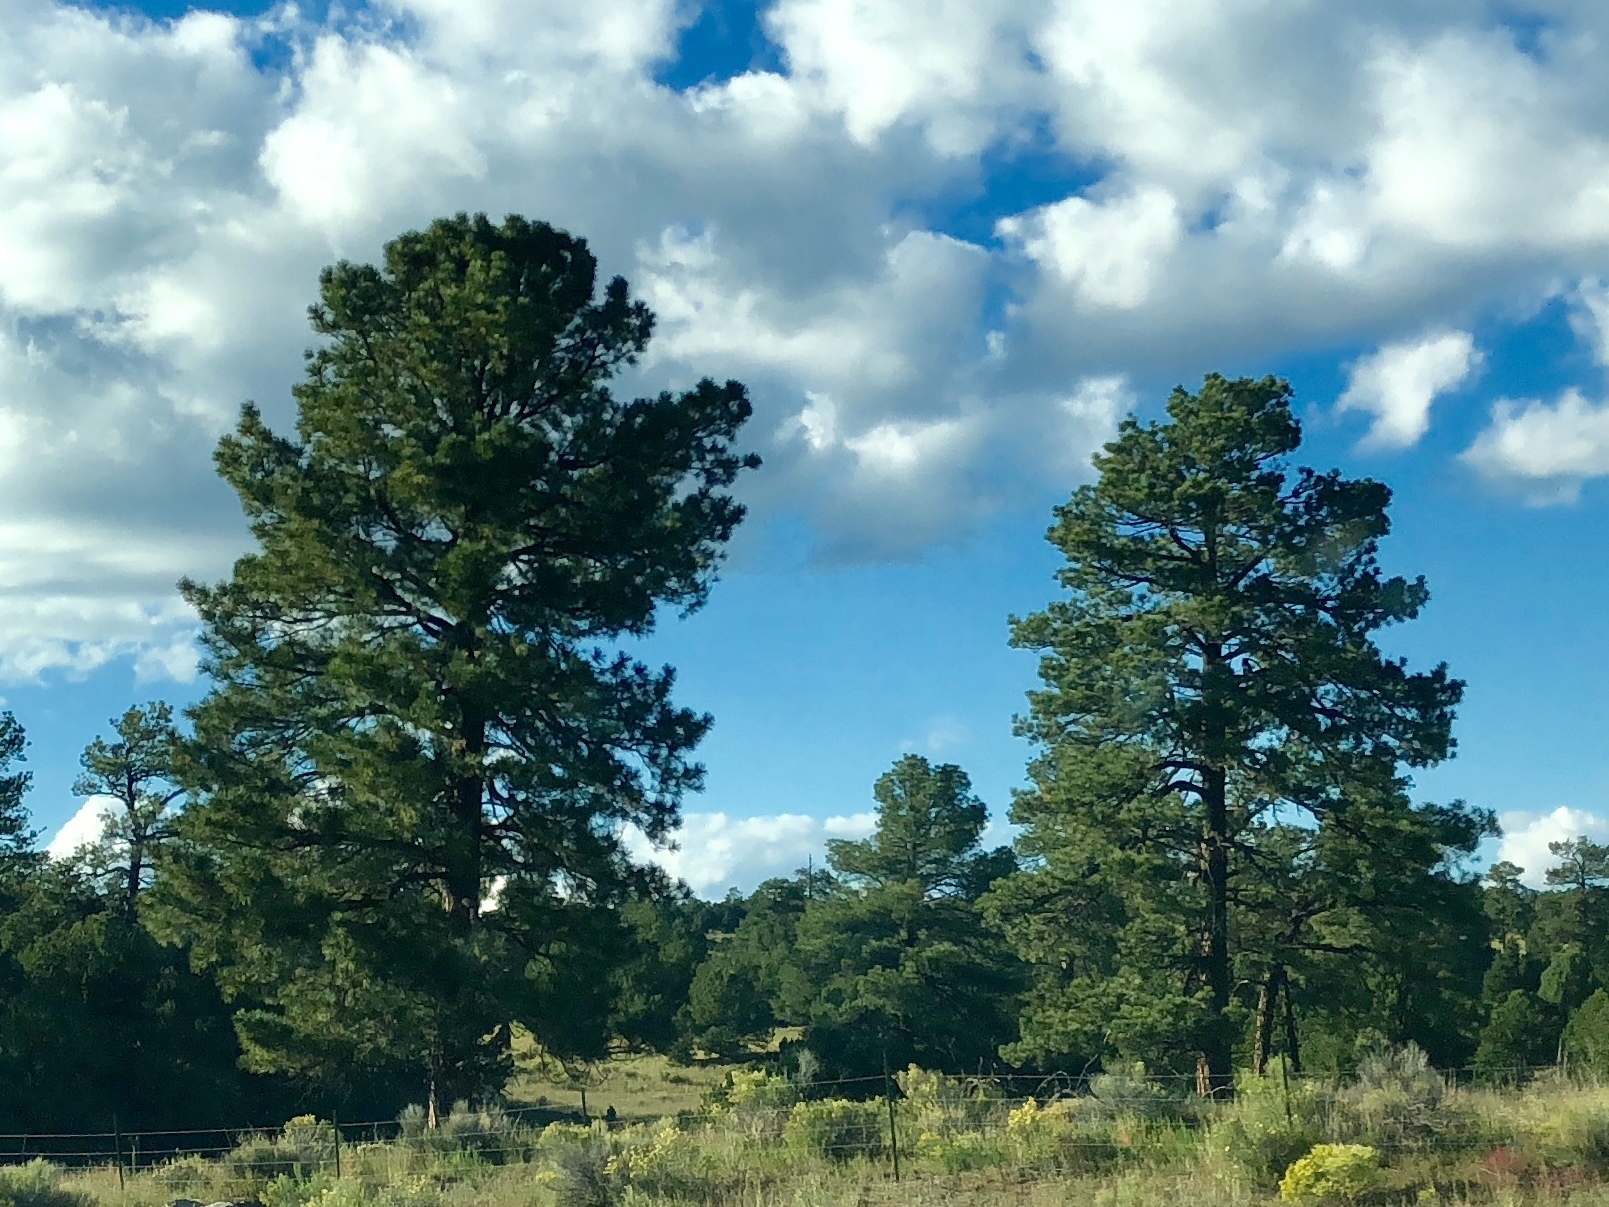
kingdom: Plantae
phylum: Tracheophyta
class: Pinopsida
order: Pinales
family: Pinaceae
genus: Pinus
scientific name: Pinus ponderosa
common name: Western yellow-pine
